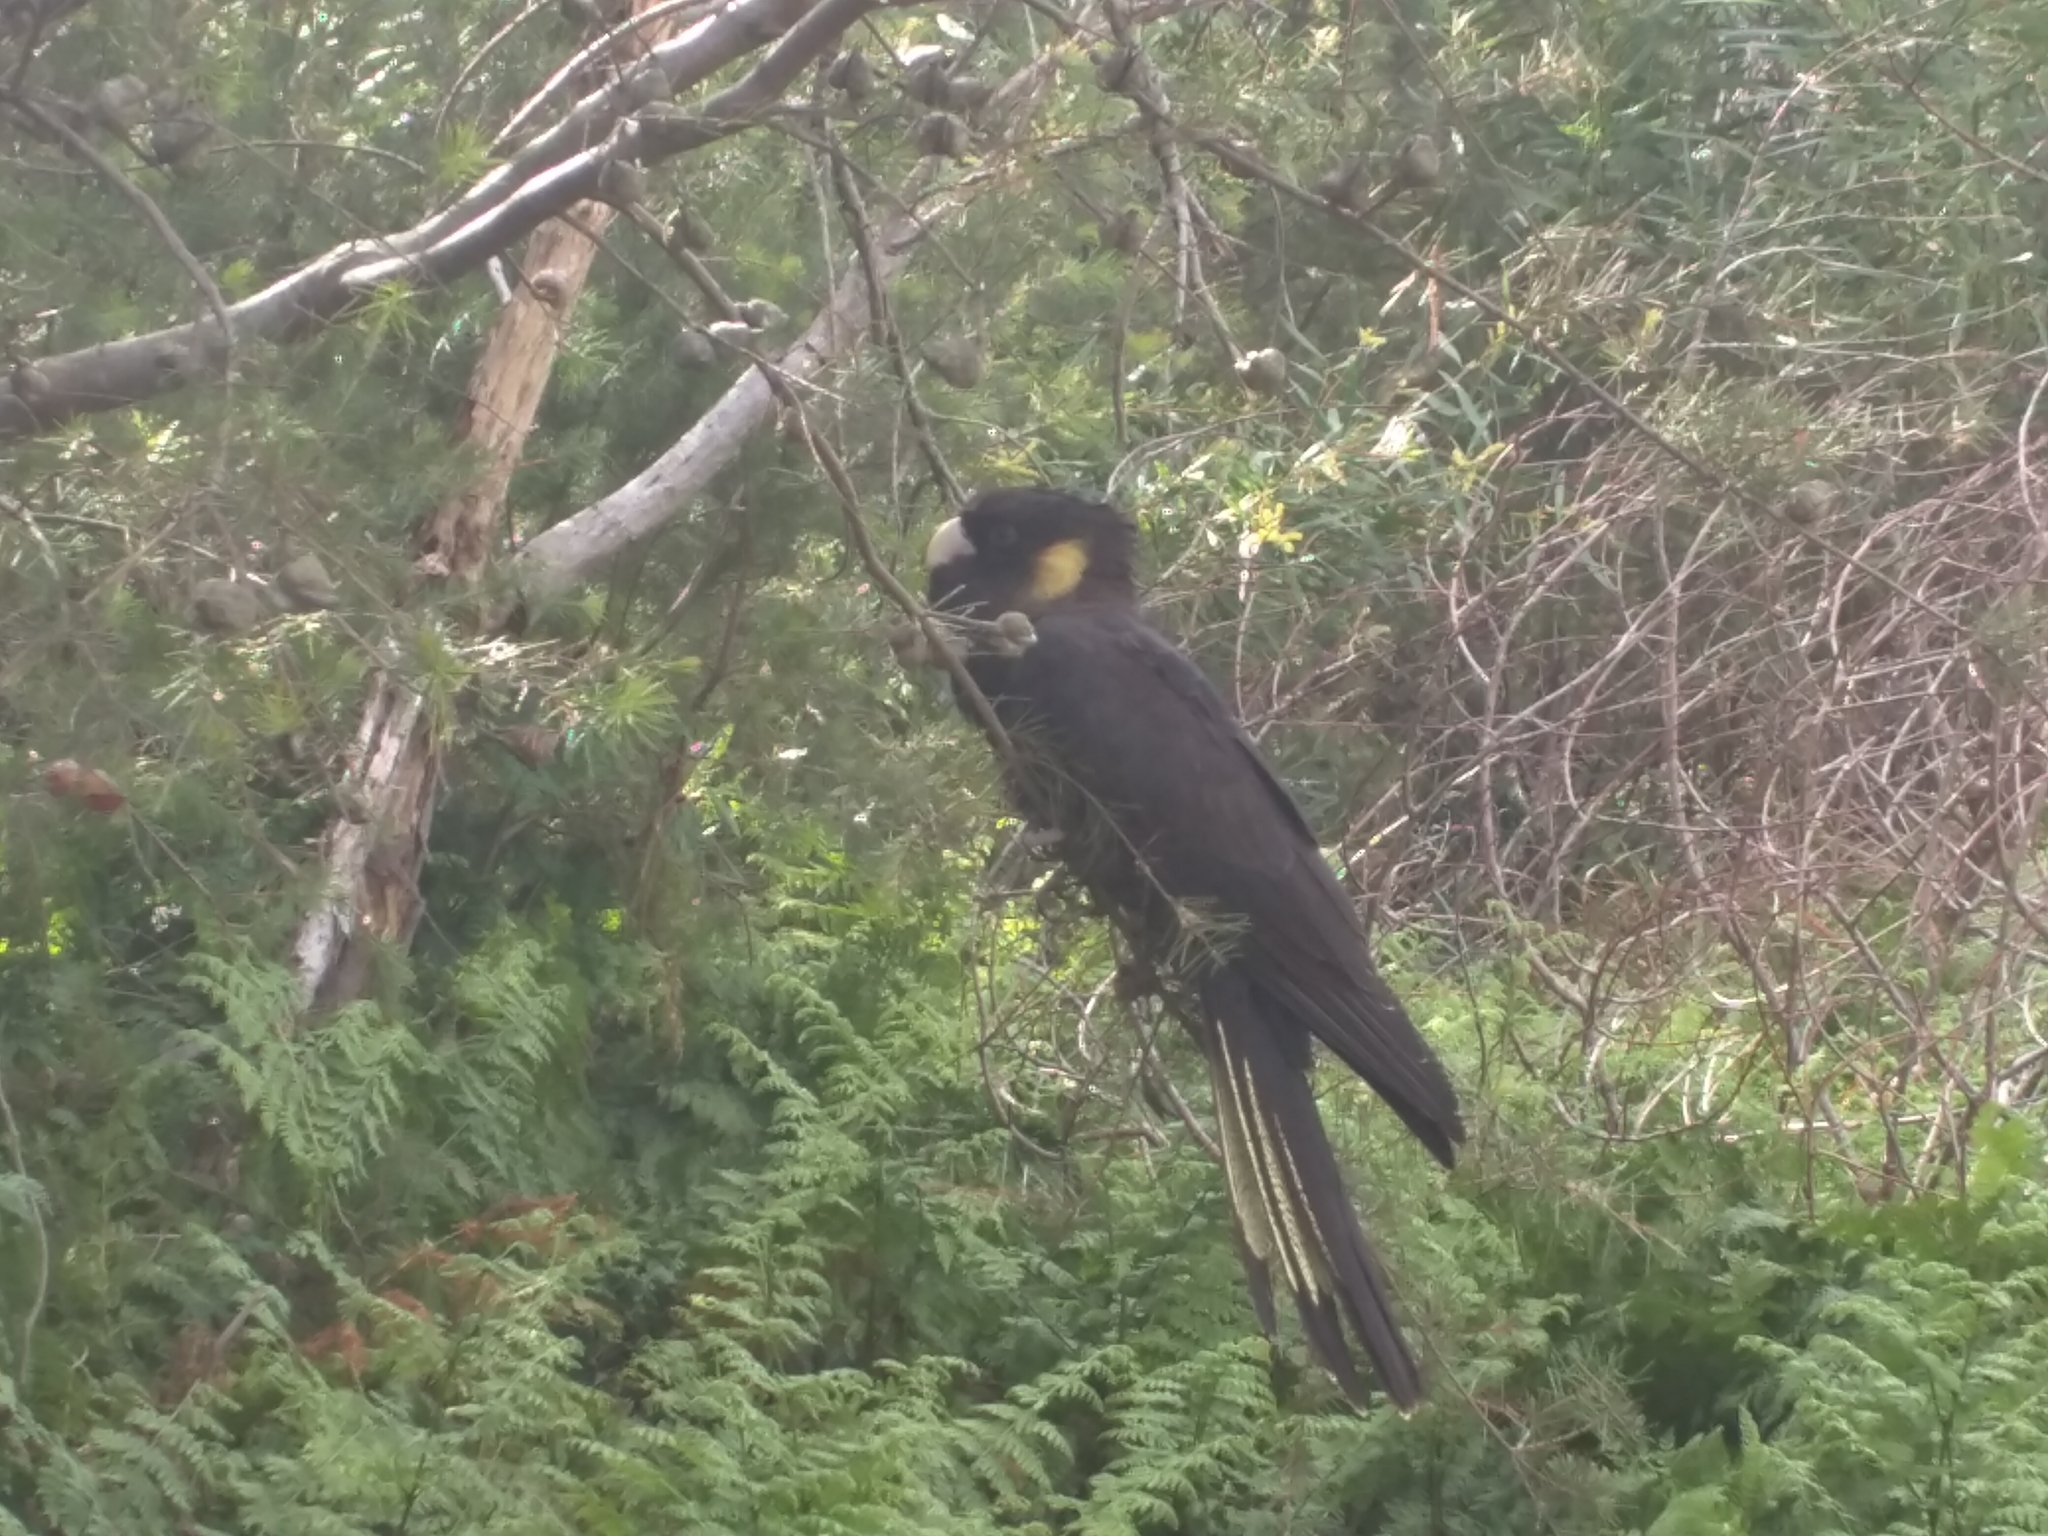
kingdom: Animalia
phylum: Chordata
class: Aves
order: Psittaciformes
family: Cacatuidae
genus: Zanda
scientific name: Zanda funerea
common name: Yellow-tailed black-cockatoo
